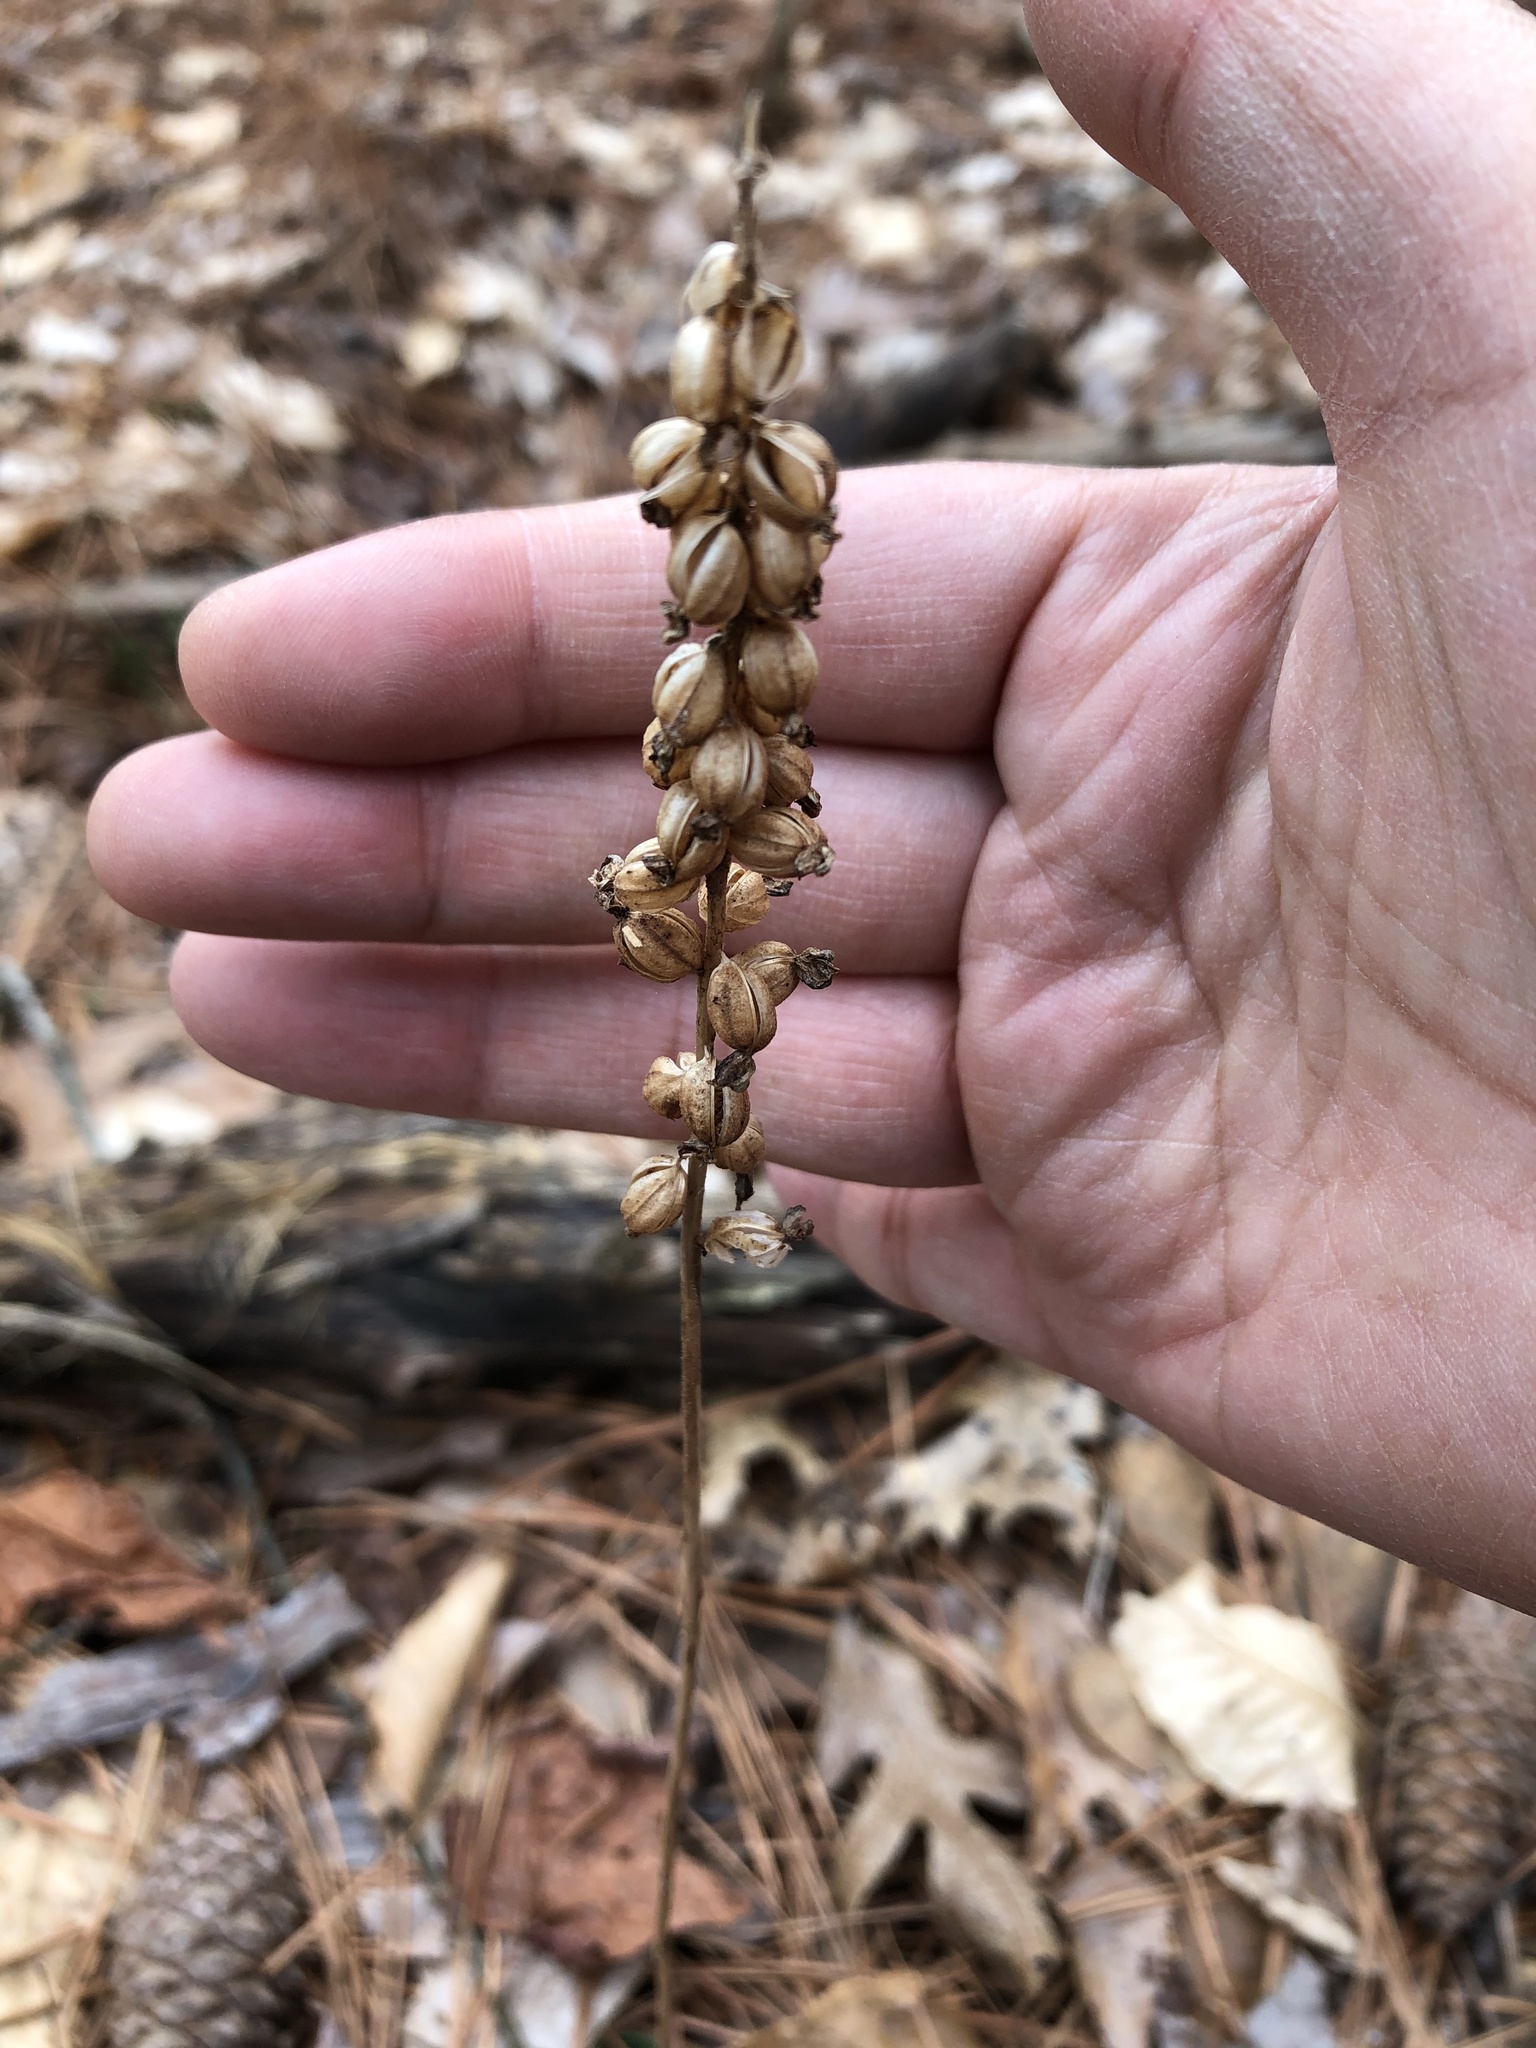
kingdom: Plantae
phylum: Tracheophyta
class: Liliopsida
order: Asparagales
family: Orchidaceae
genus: Goodyera
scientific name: Goodyera pubescens
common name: Downy rattlesnake-plantain
